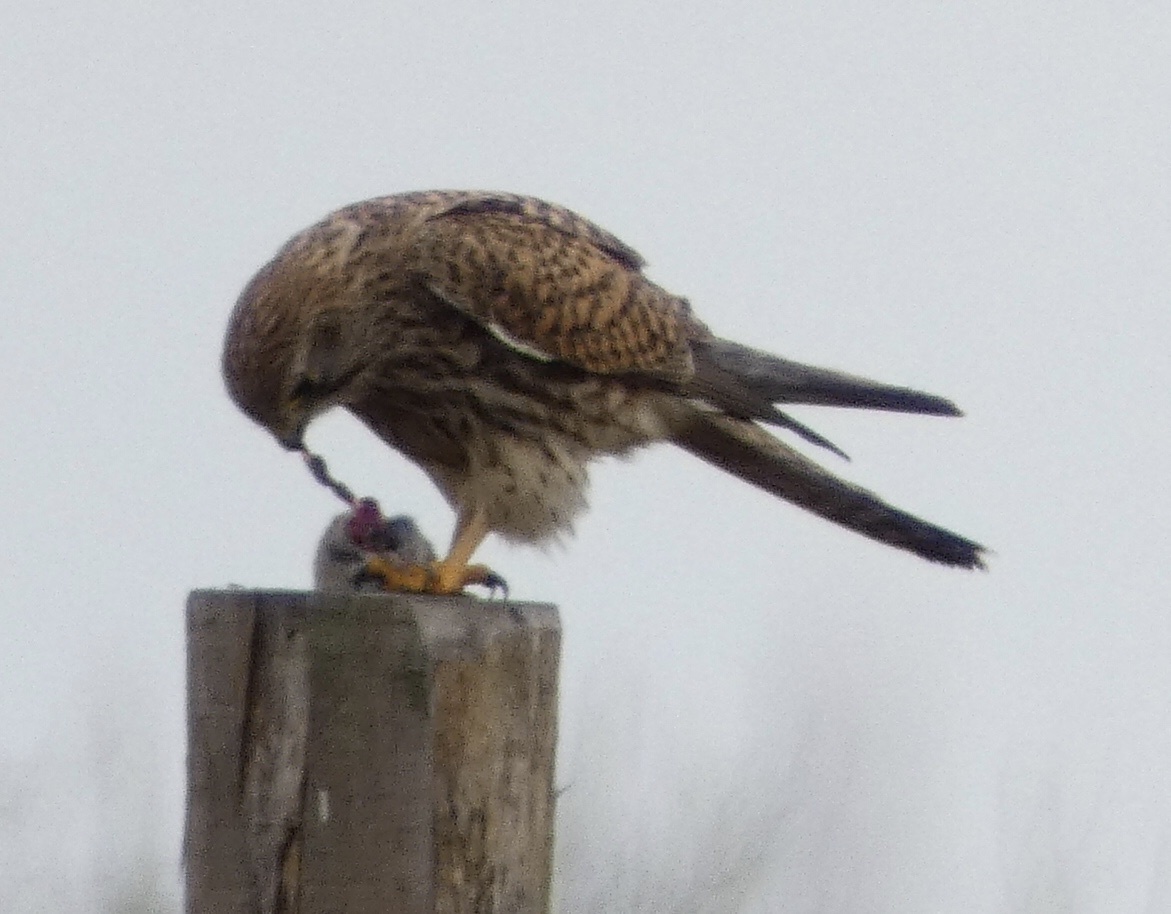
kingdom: Animalia
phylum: Chordata
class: Aves
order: Falconiformes
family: Falconidae
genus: Falco
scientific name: Falco tinnunculus
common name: Common kestrel
